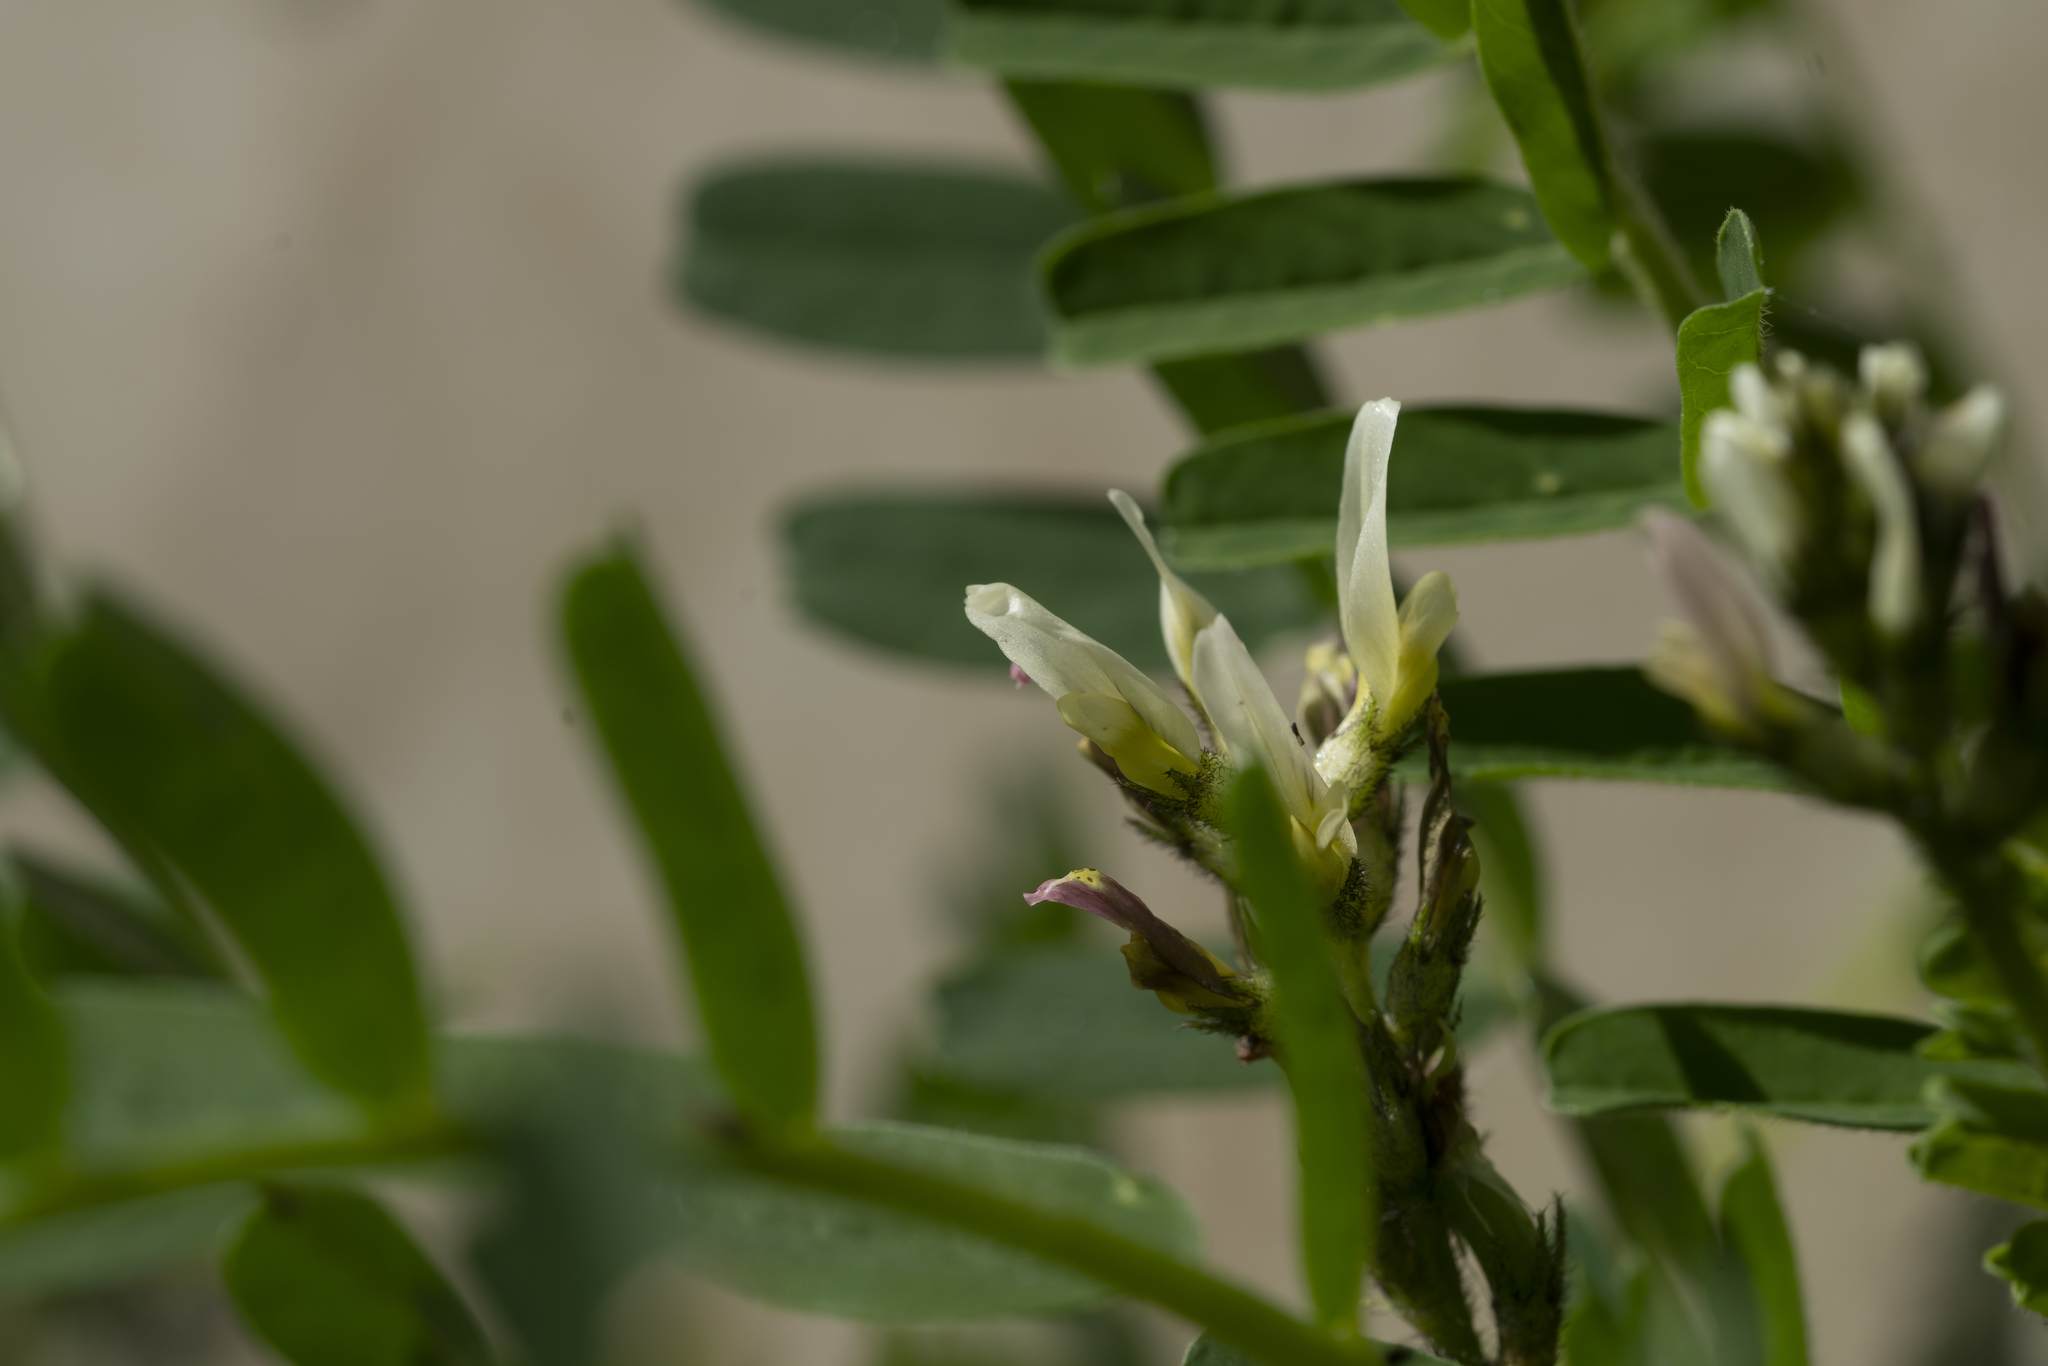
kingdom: Plantae
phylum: Tracheophyta
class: Magnoliopsida
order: Fabales
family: Fabaceae
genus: Astragalus
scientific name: Astragalus boeticus
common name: Milk-vetch
